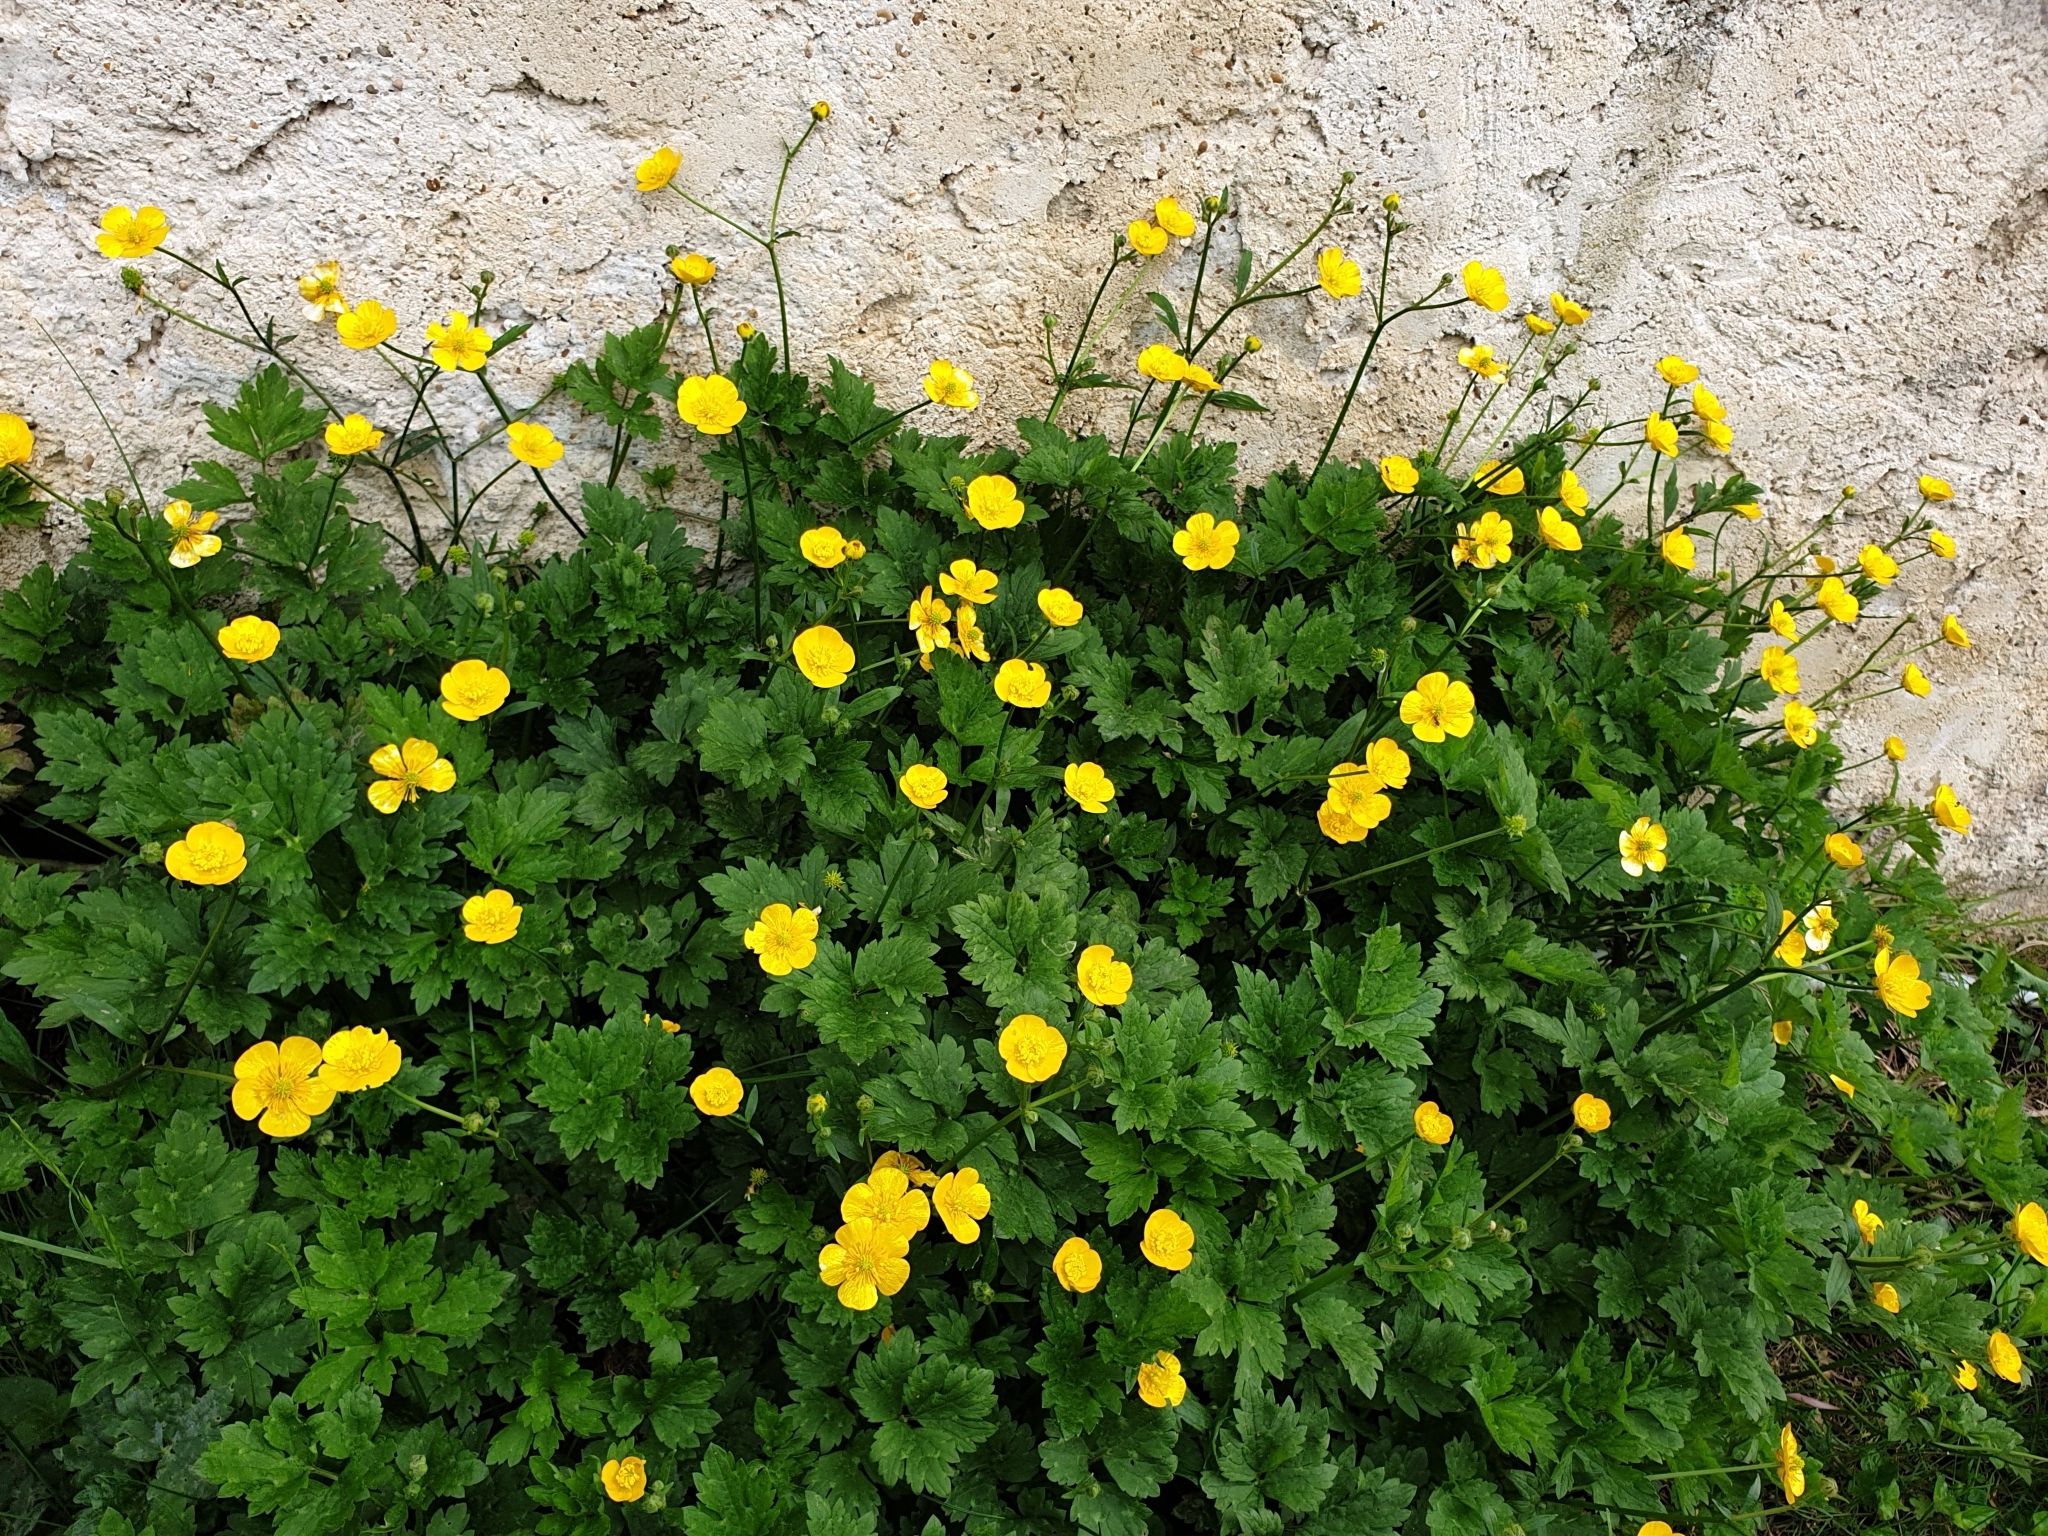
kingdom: Plantae
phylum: Tracheophyta
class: Magnoliopsida
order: Ranunculales
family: Ranunculaceae
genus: Ranunculus
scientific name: Ranunculus repens
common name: Creeping buttercup
